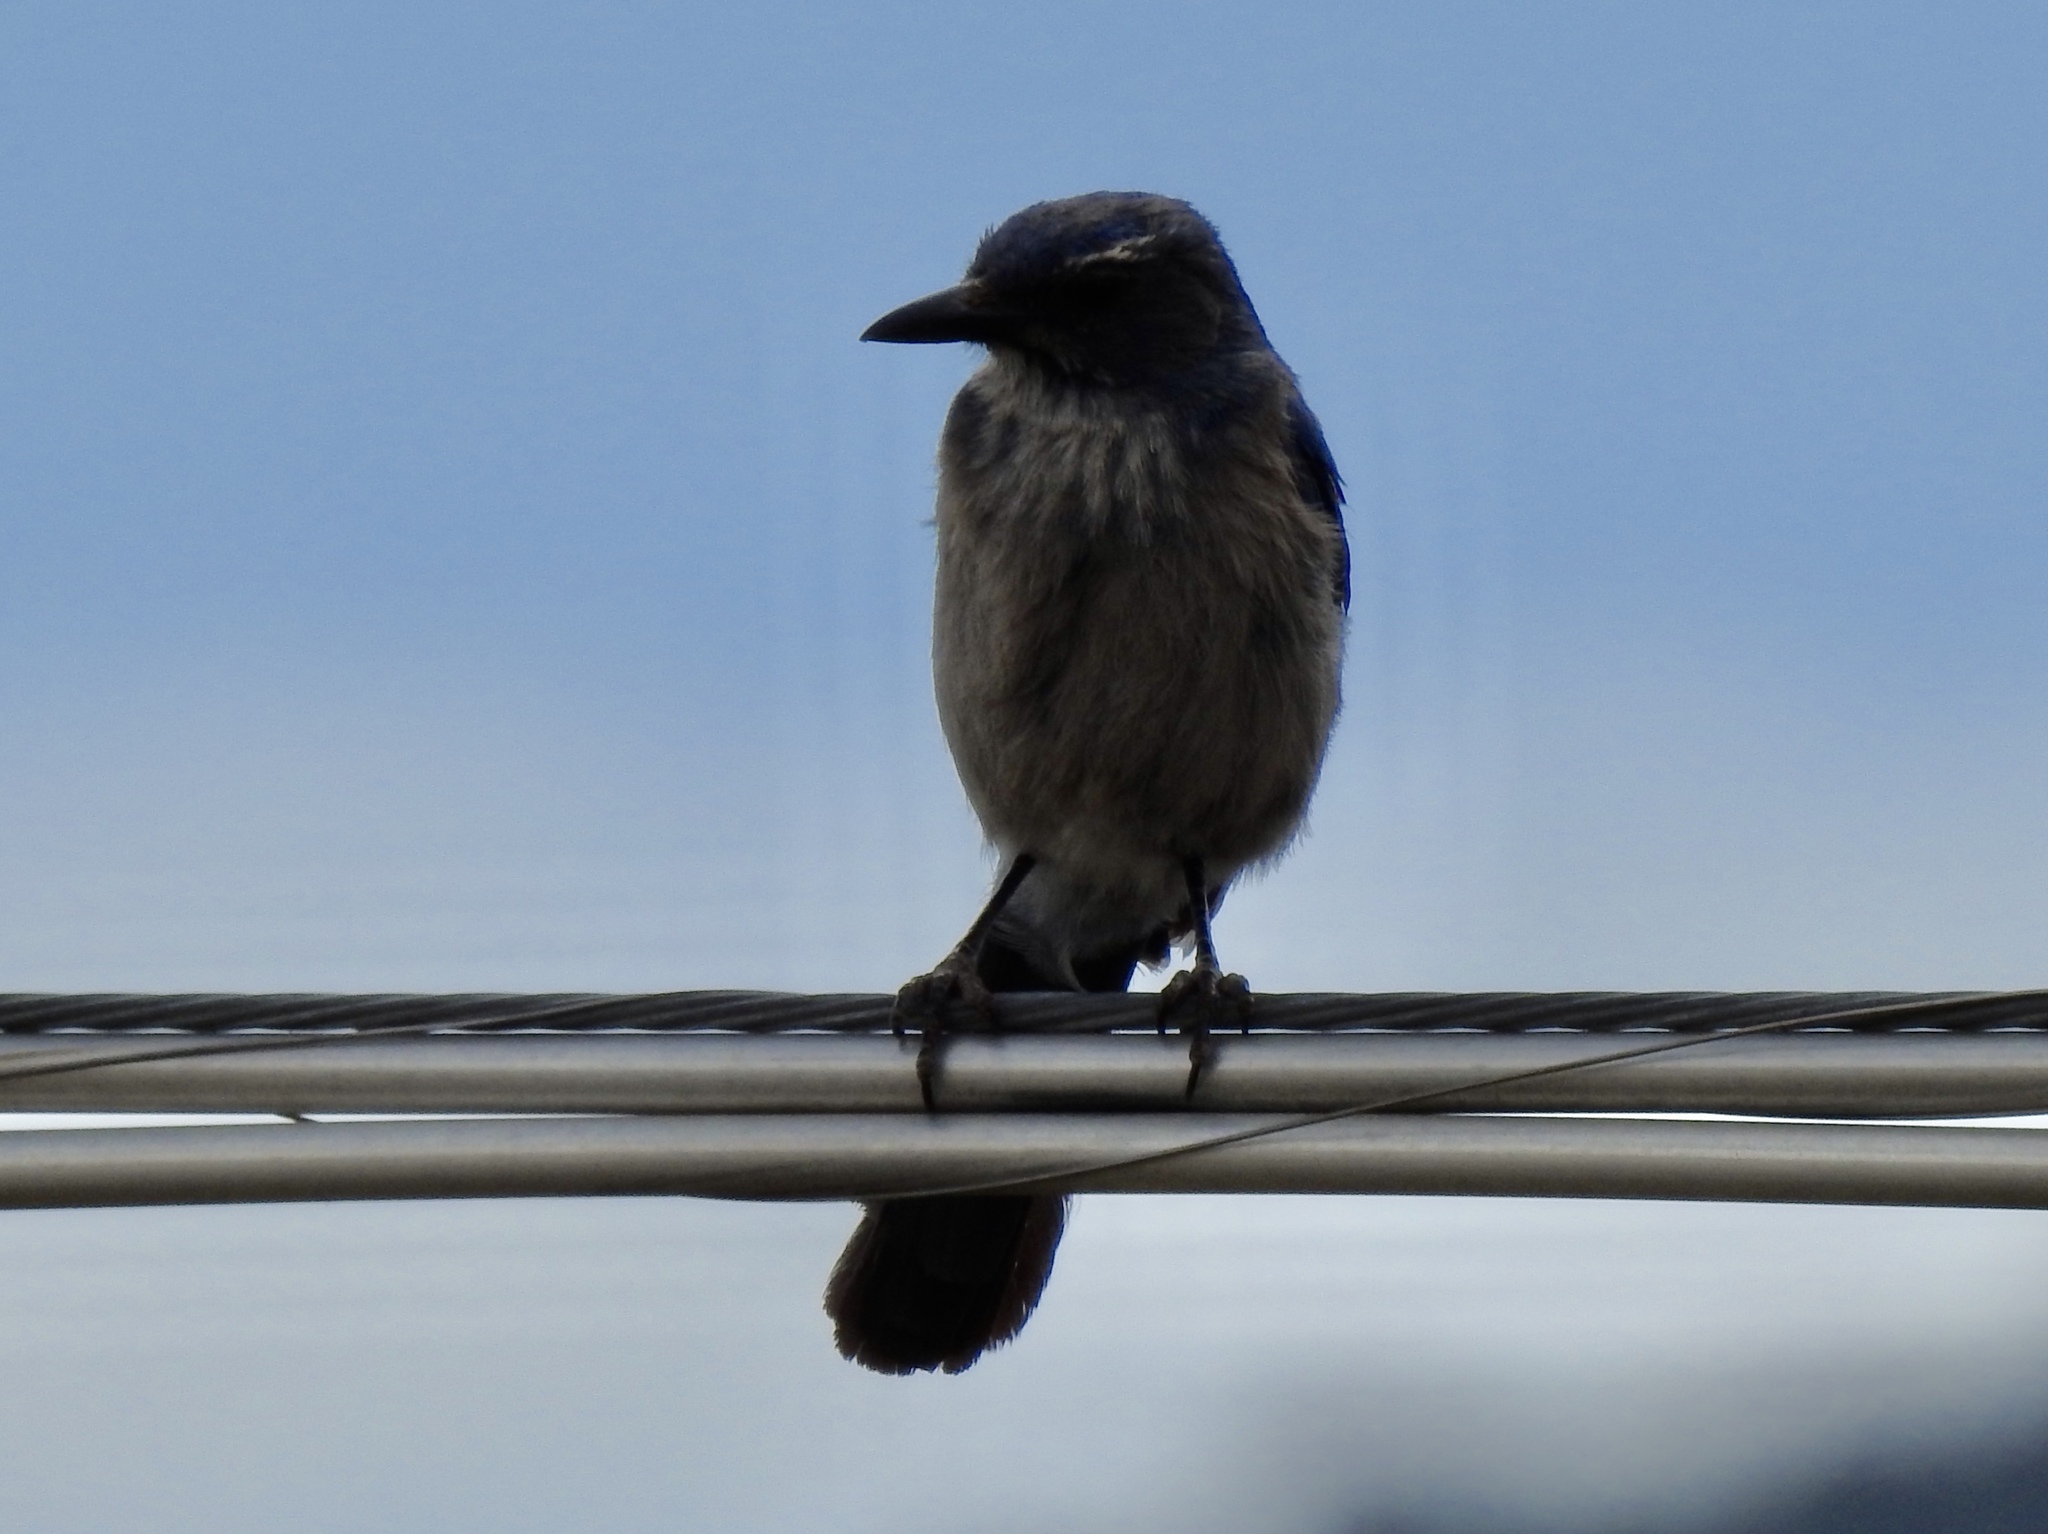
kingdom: Animalia
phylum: Chordata
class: Aves
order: Passeriformes
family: Corvidae
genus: Aphelocoma
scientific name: Aphelocoma woodhouseii
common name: Woodhouse's scrub-jay
